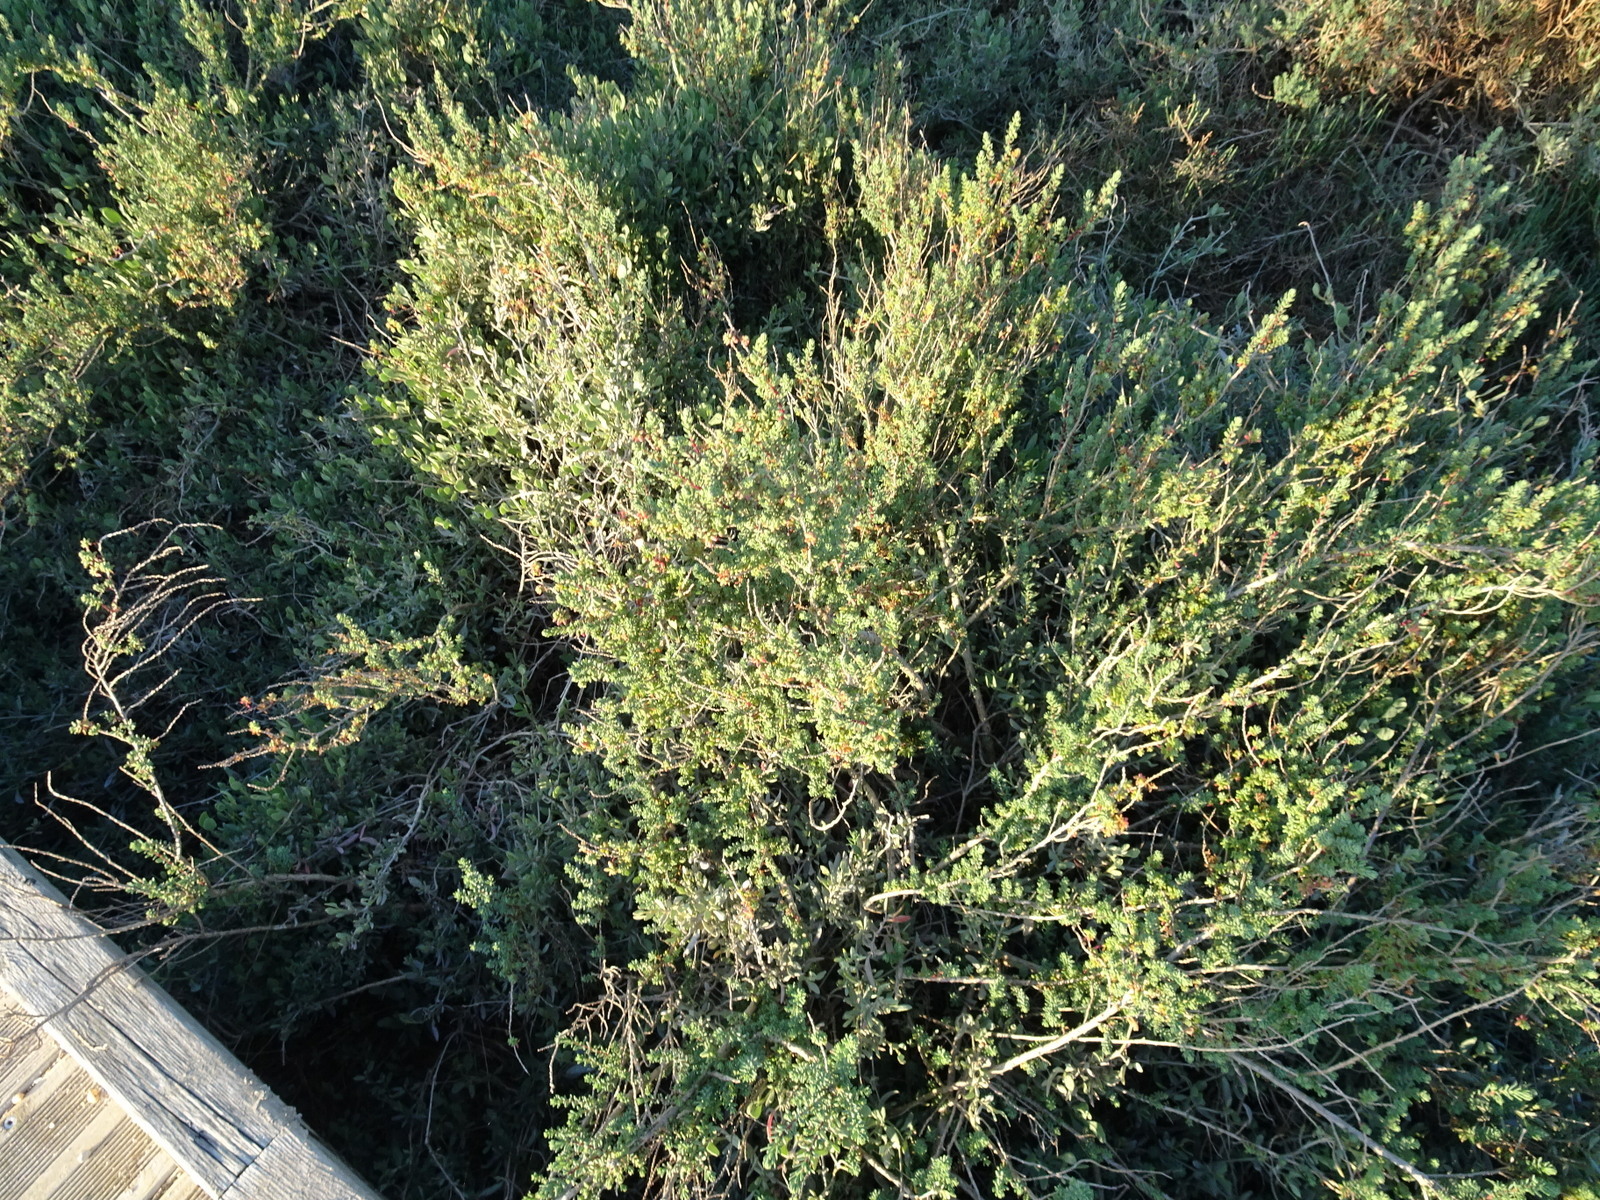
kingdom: Plantae
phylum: Tracheophyta
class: Magnoliopsida
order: Caryophyllales
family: Amaranthaceae
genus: Suaeda
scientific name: Suaeda vera
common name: Shrubby sea-blite
